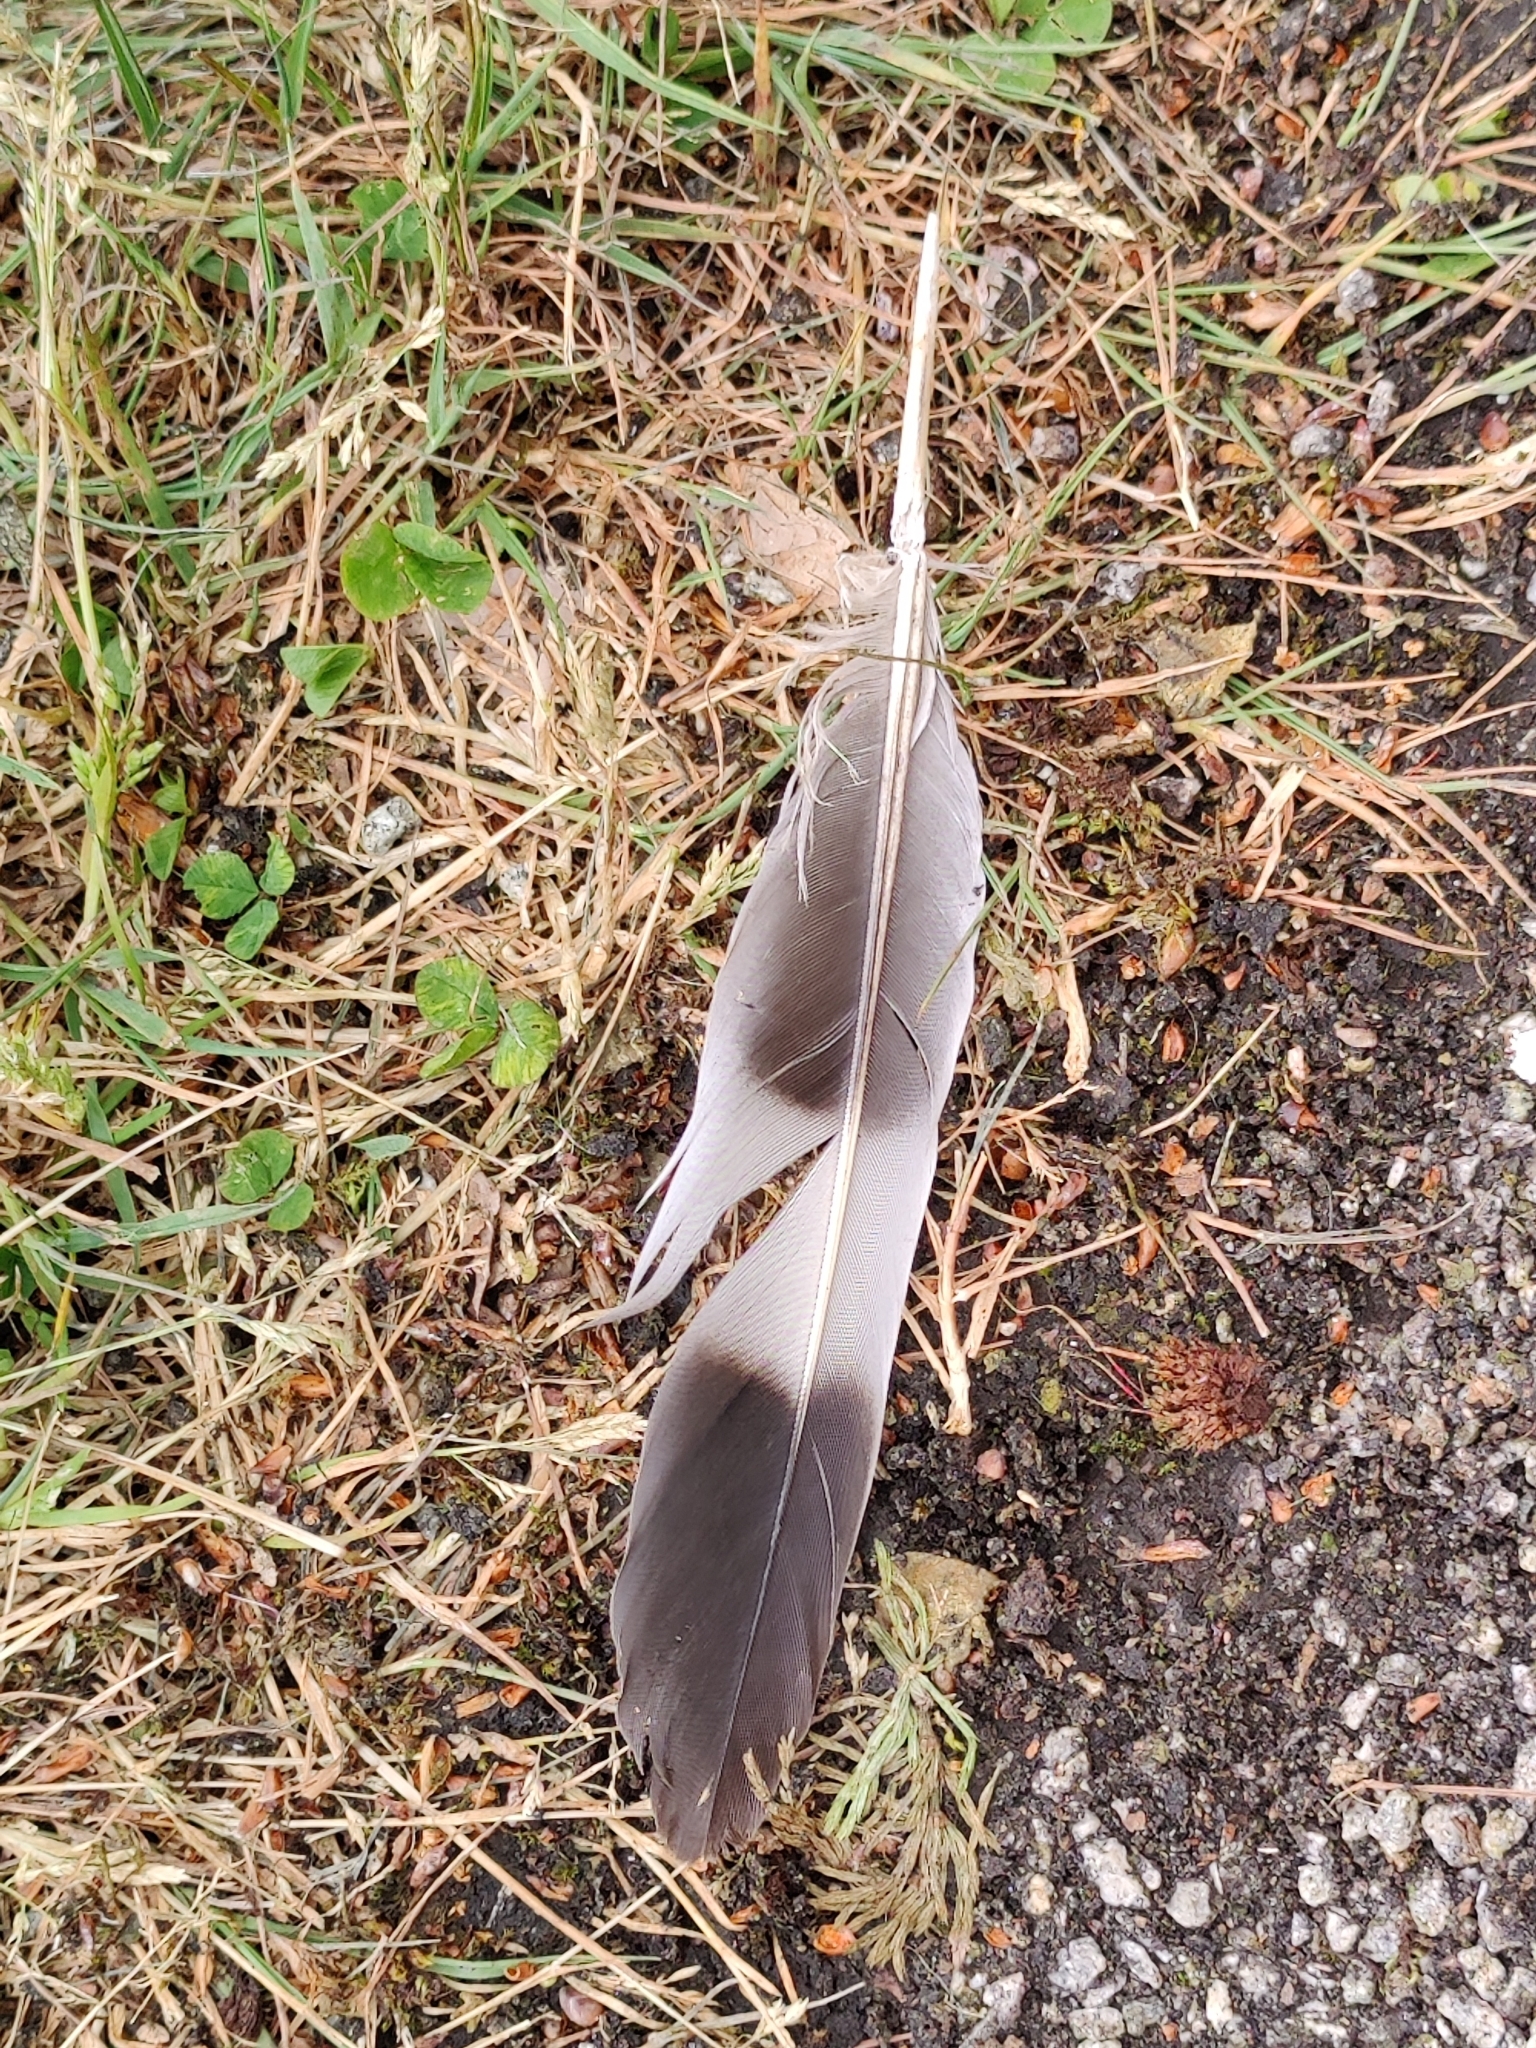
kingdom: Animalia
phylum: Chordata
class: Aves
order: Columbiformes
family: Columbidae
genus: Columba
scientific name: Columba palumbus
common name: Common wood pigeon
